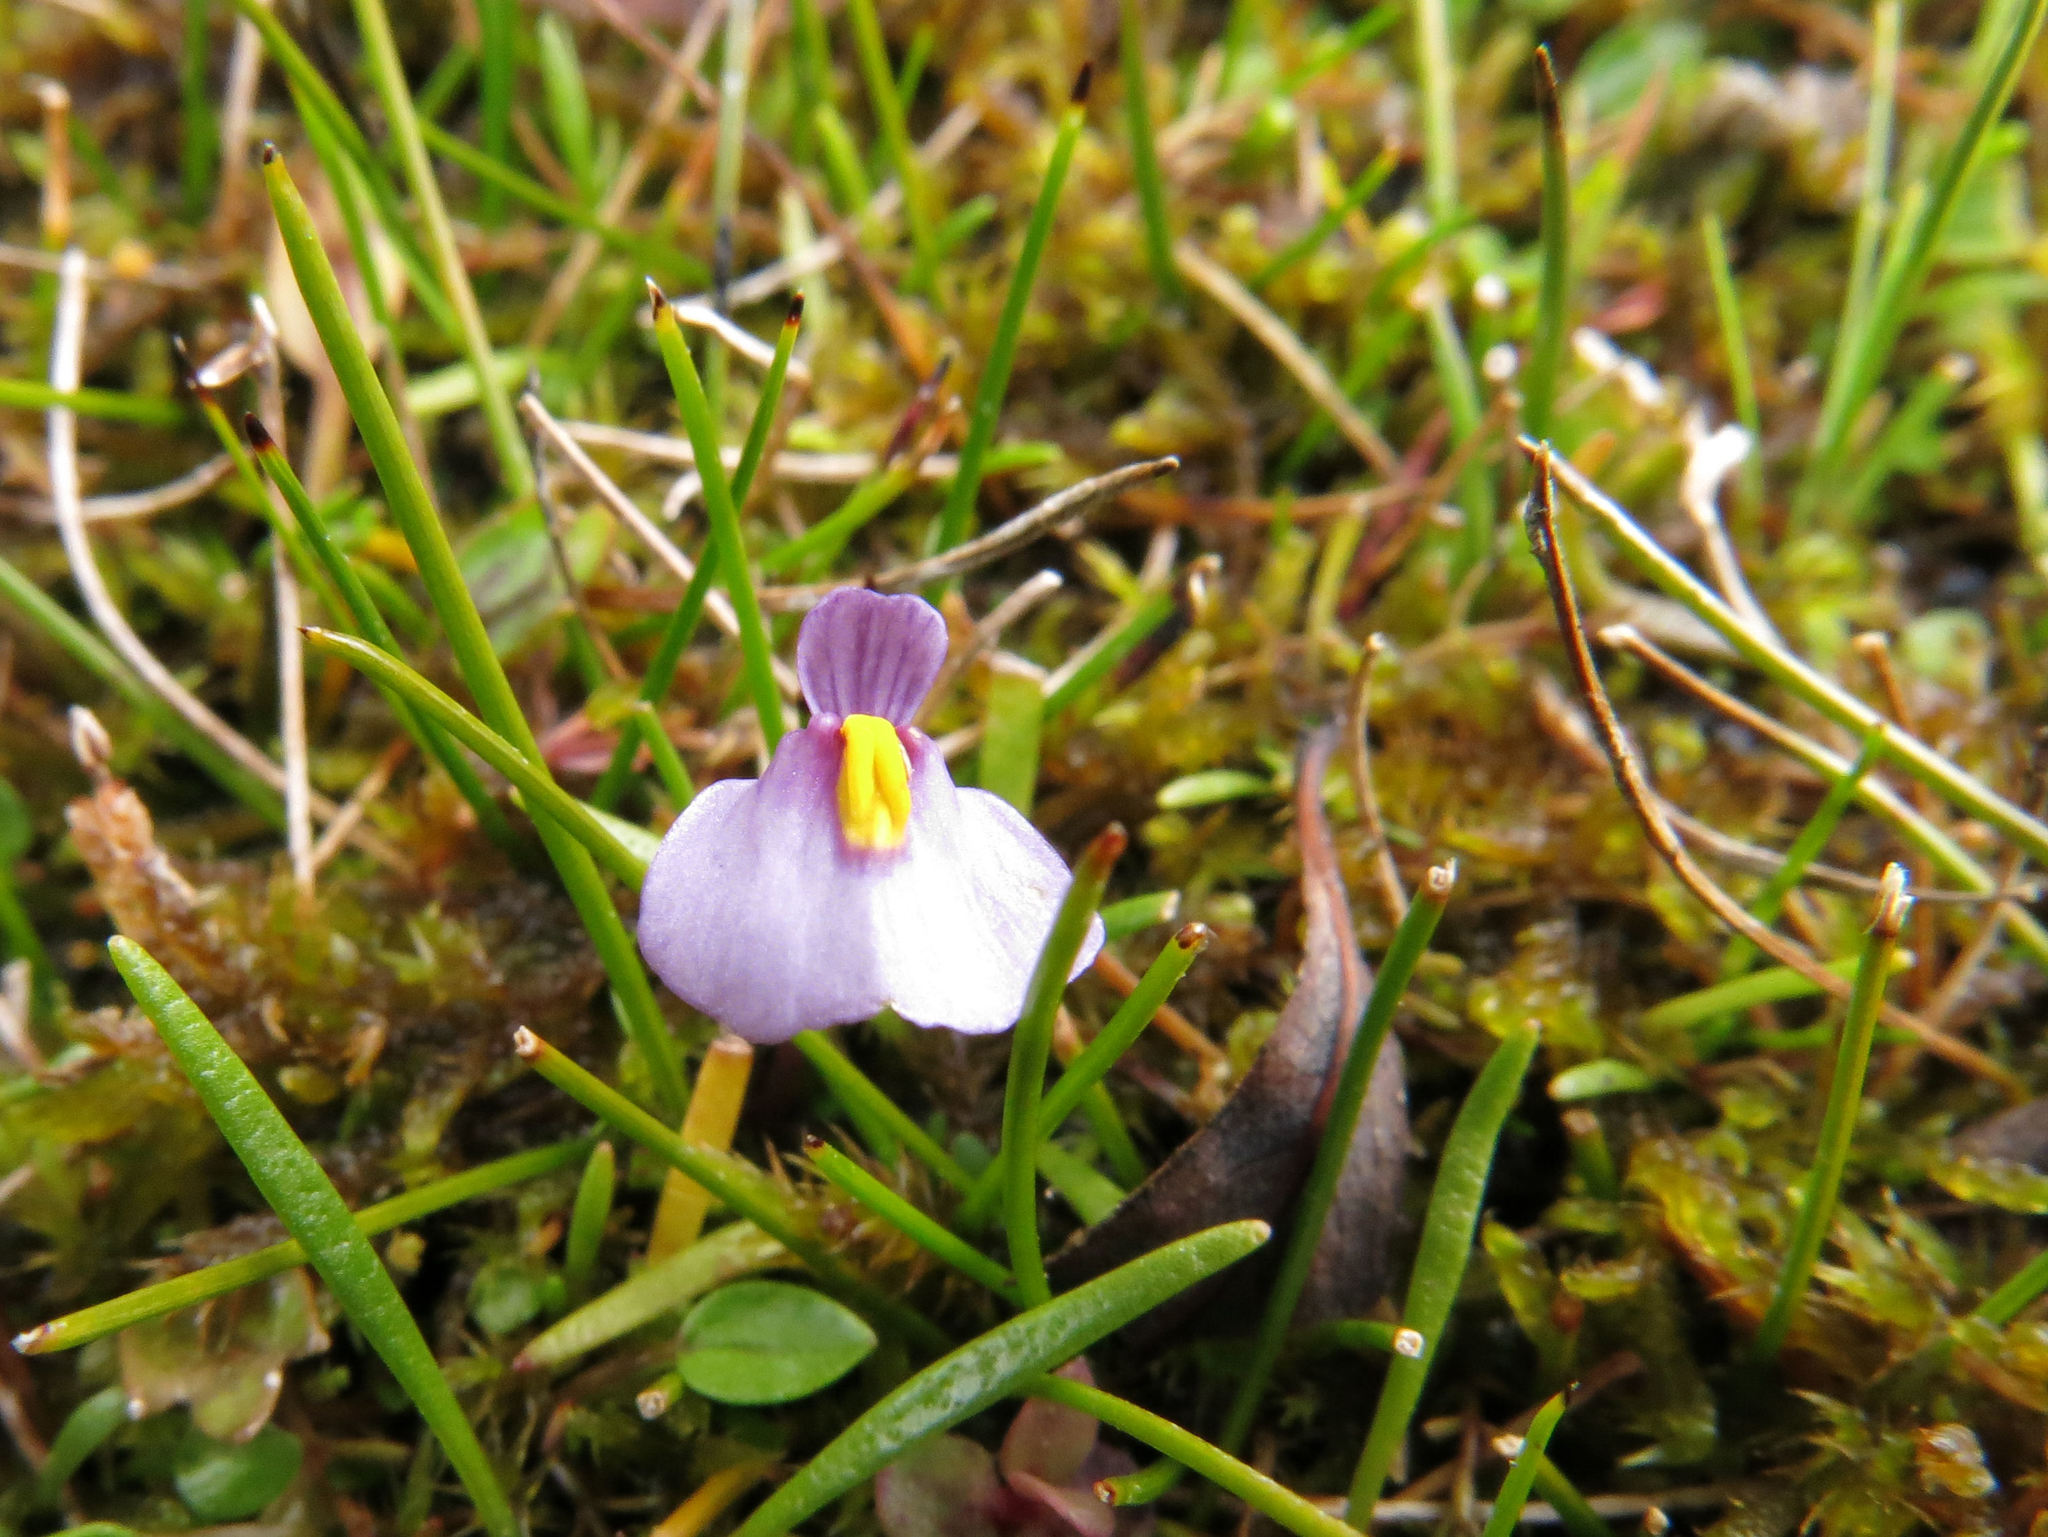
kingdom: Plantae
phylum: Tracheophyta
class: Magnoliopsida
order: Lamiales
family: Lentibulariaceae
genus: Utricularia
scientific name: Utricularia dichotoma
